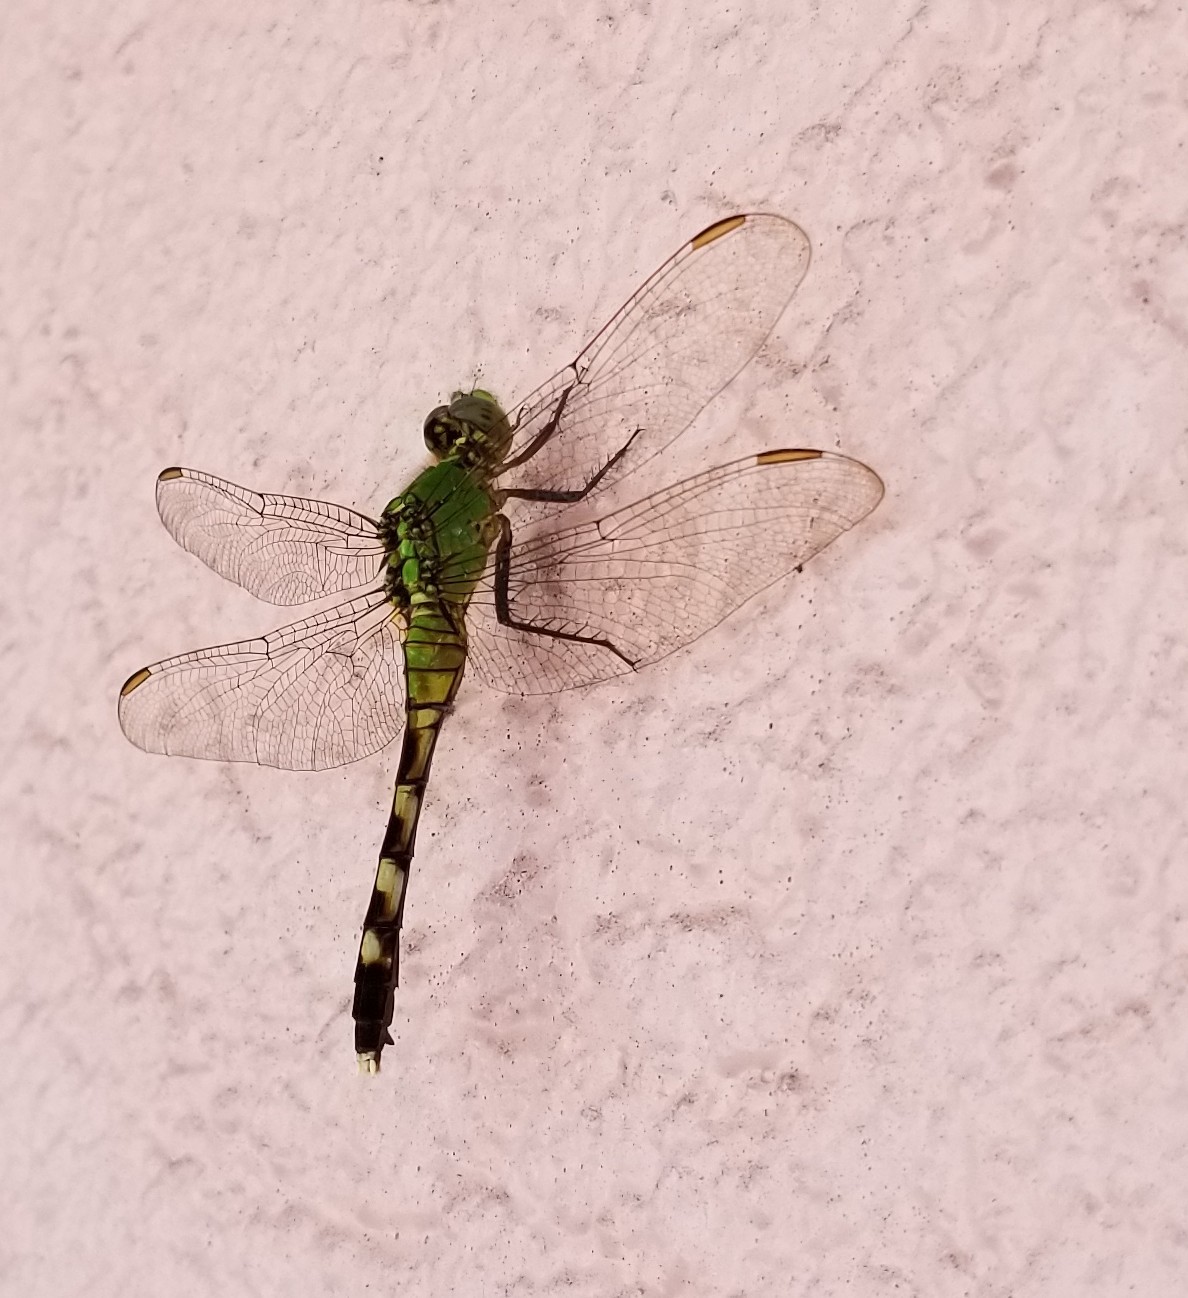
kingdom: Animalia
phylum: Arthropoda
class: Insecta
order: Odonata
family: Libellulidae
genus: Erythemis
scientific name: Erythemis simplicicollis
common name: Eastern pondhawk
